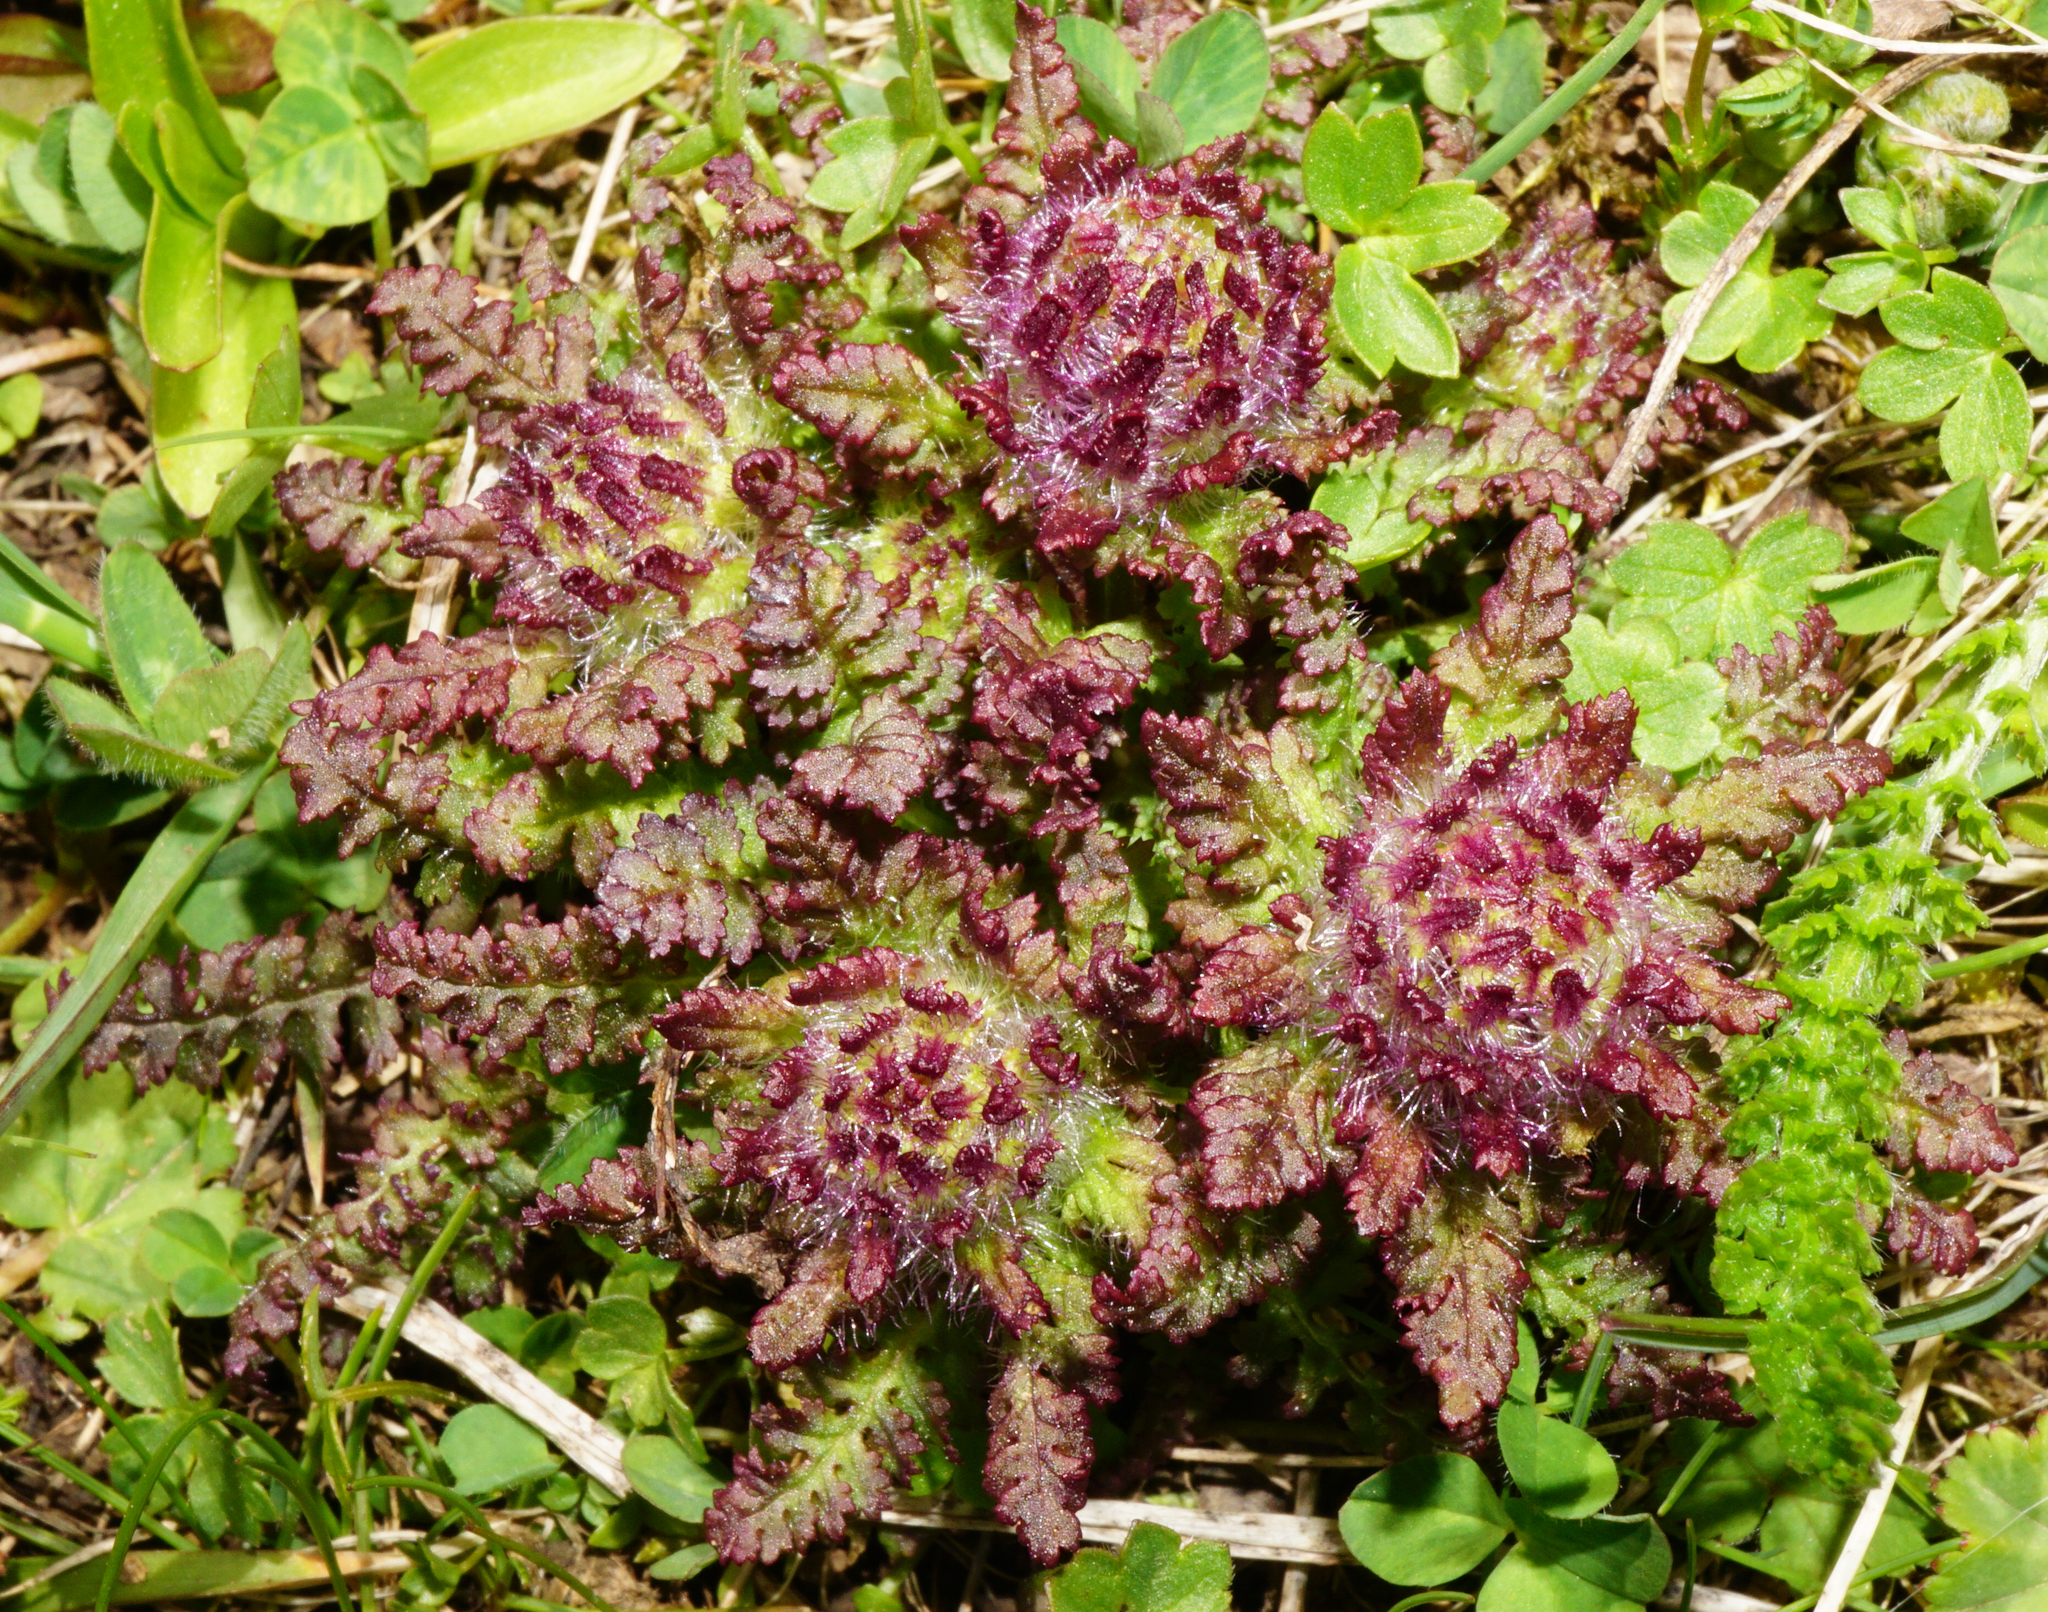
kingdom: Plantae
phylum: Tracheophyta
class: Magnoliopsida
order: Lamiales
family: Orobanchaceae
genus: Pedicularis
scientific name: Pedicularis verticillata
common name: Whorled lousewort
